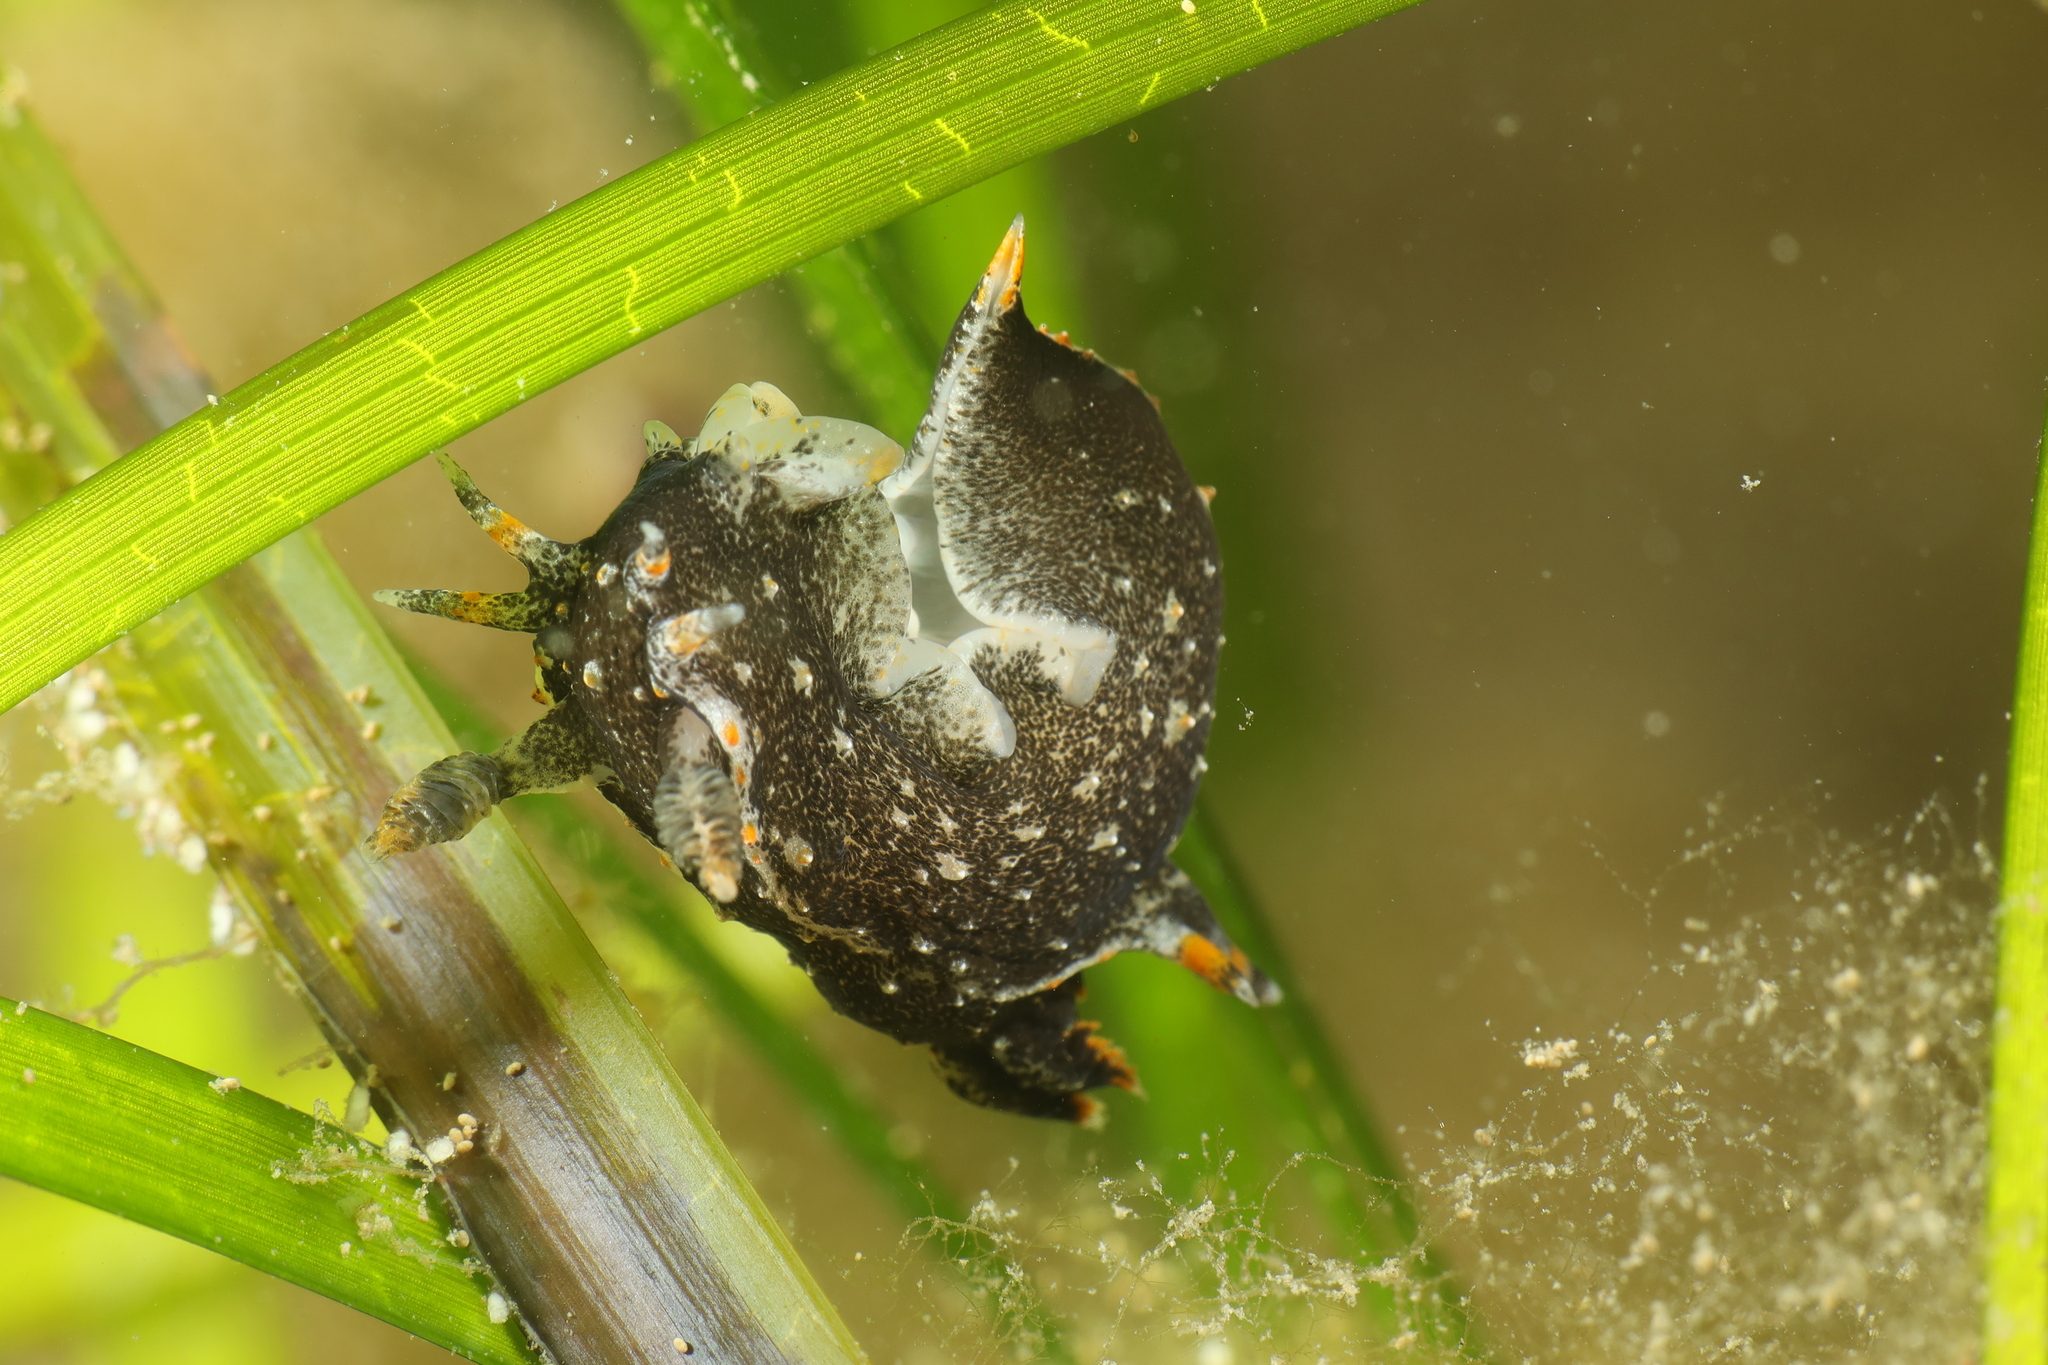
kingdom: Animalia
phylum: Mollusca
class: Gastropoda
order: Nudibranchia
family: Polyceridae
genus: Polycera
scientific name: Polycera hedgpethi
